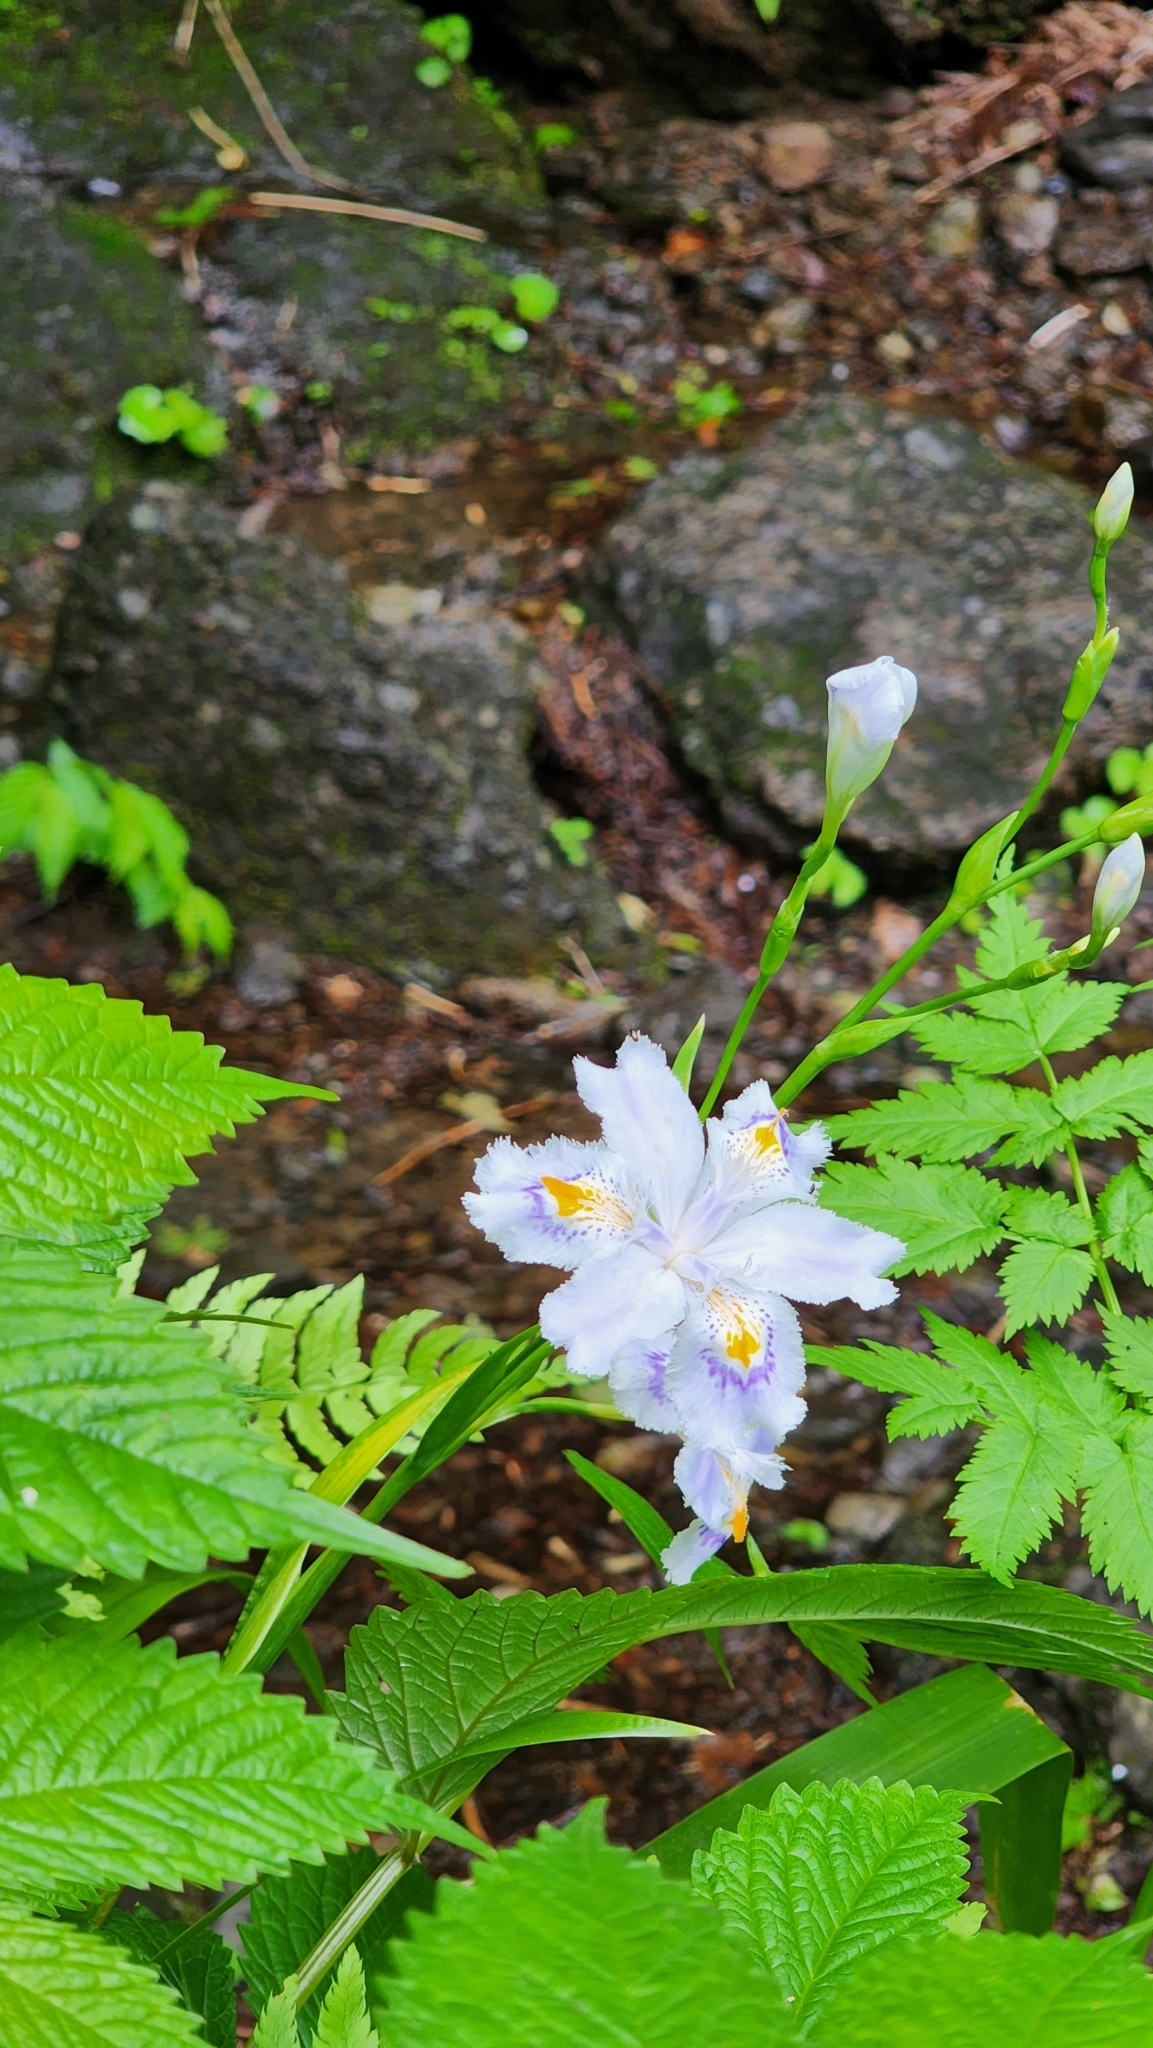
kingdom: Plantae
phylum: Tracheophyta
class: Liliopsida
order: Asparagales
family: Iridaceae
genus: Iris
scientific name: Iris japonica
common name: Butterfly-flower
